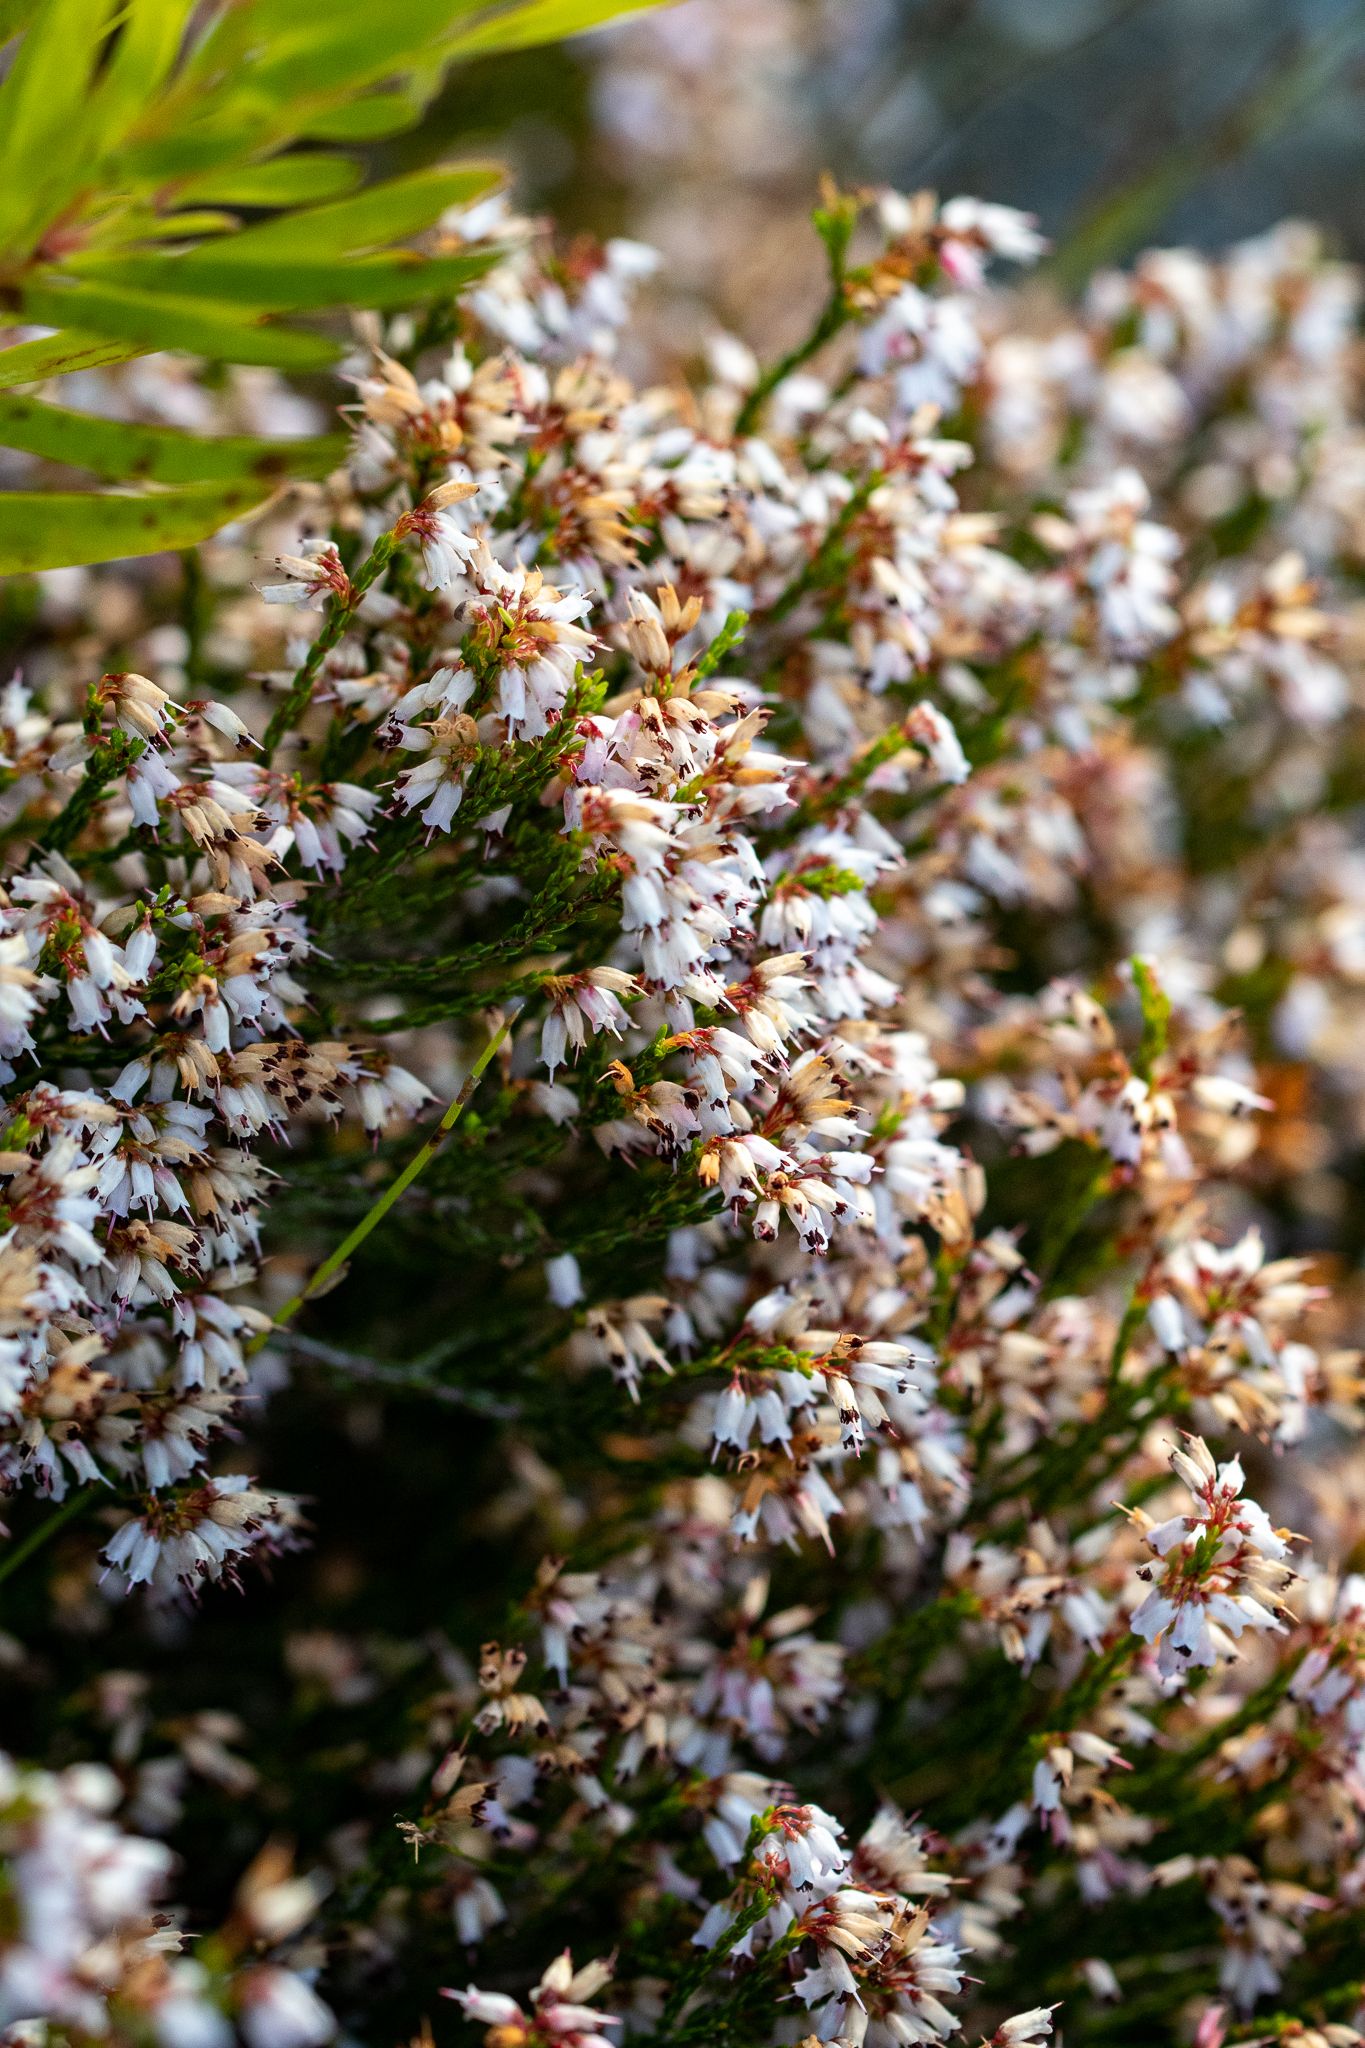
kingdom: Plantae
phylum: Tracheophyta
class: Magnoliopsida
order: Ericales
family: Ericaceae
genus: Erica
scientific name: Erica equisetifolia
